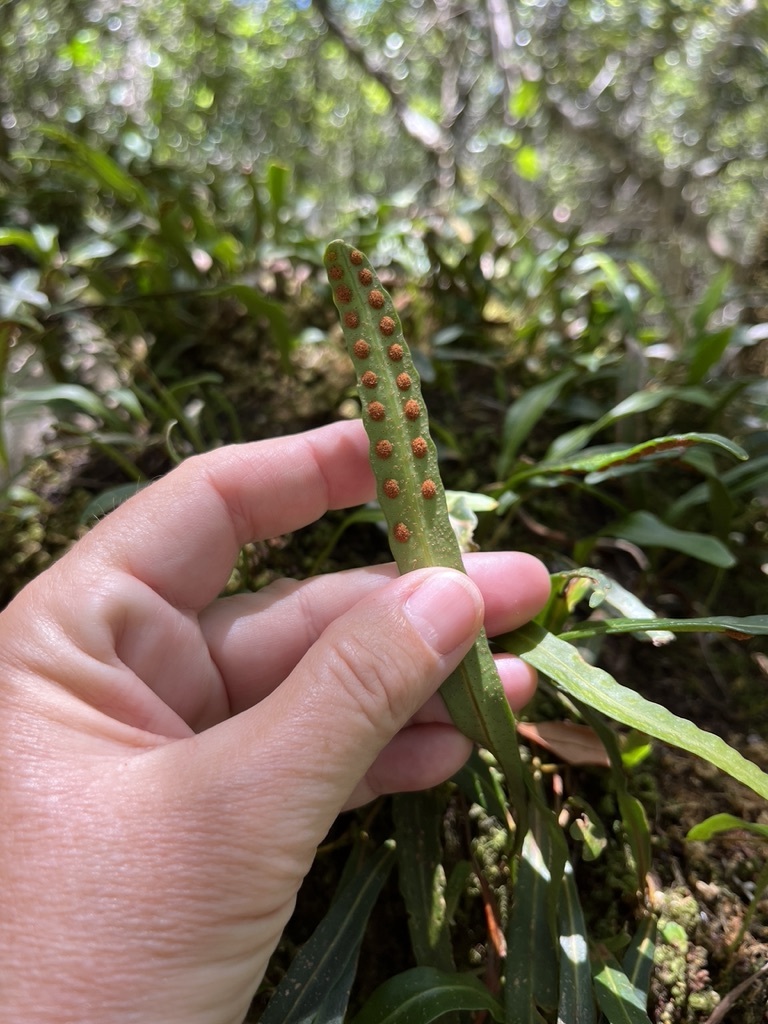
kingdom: Plantae
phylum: Tracheophyta
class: Polypodiopsida
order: Polypodiales
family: Polypodiaceae
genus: Pleopeltis
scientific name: Pleopeltis macrocarpa
